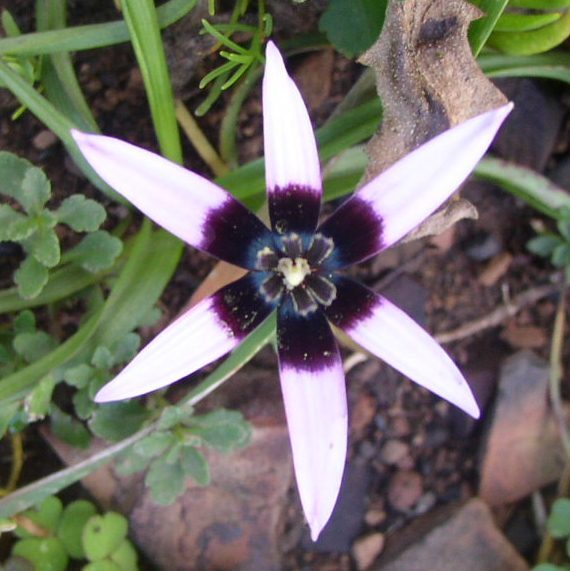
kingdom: Plantae
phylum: Tracheophyta
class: Liliopsida
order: Asparagales
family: Hypoxidaceae
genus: Pauridia
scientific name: Pauridia capensis
